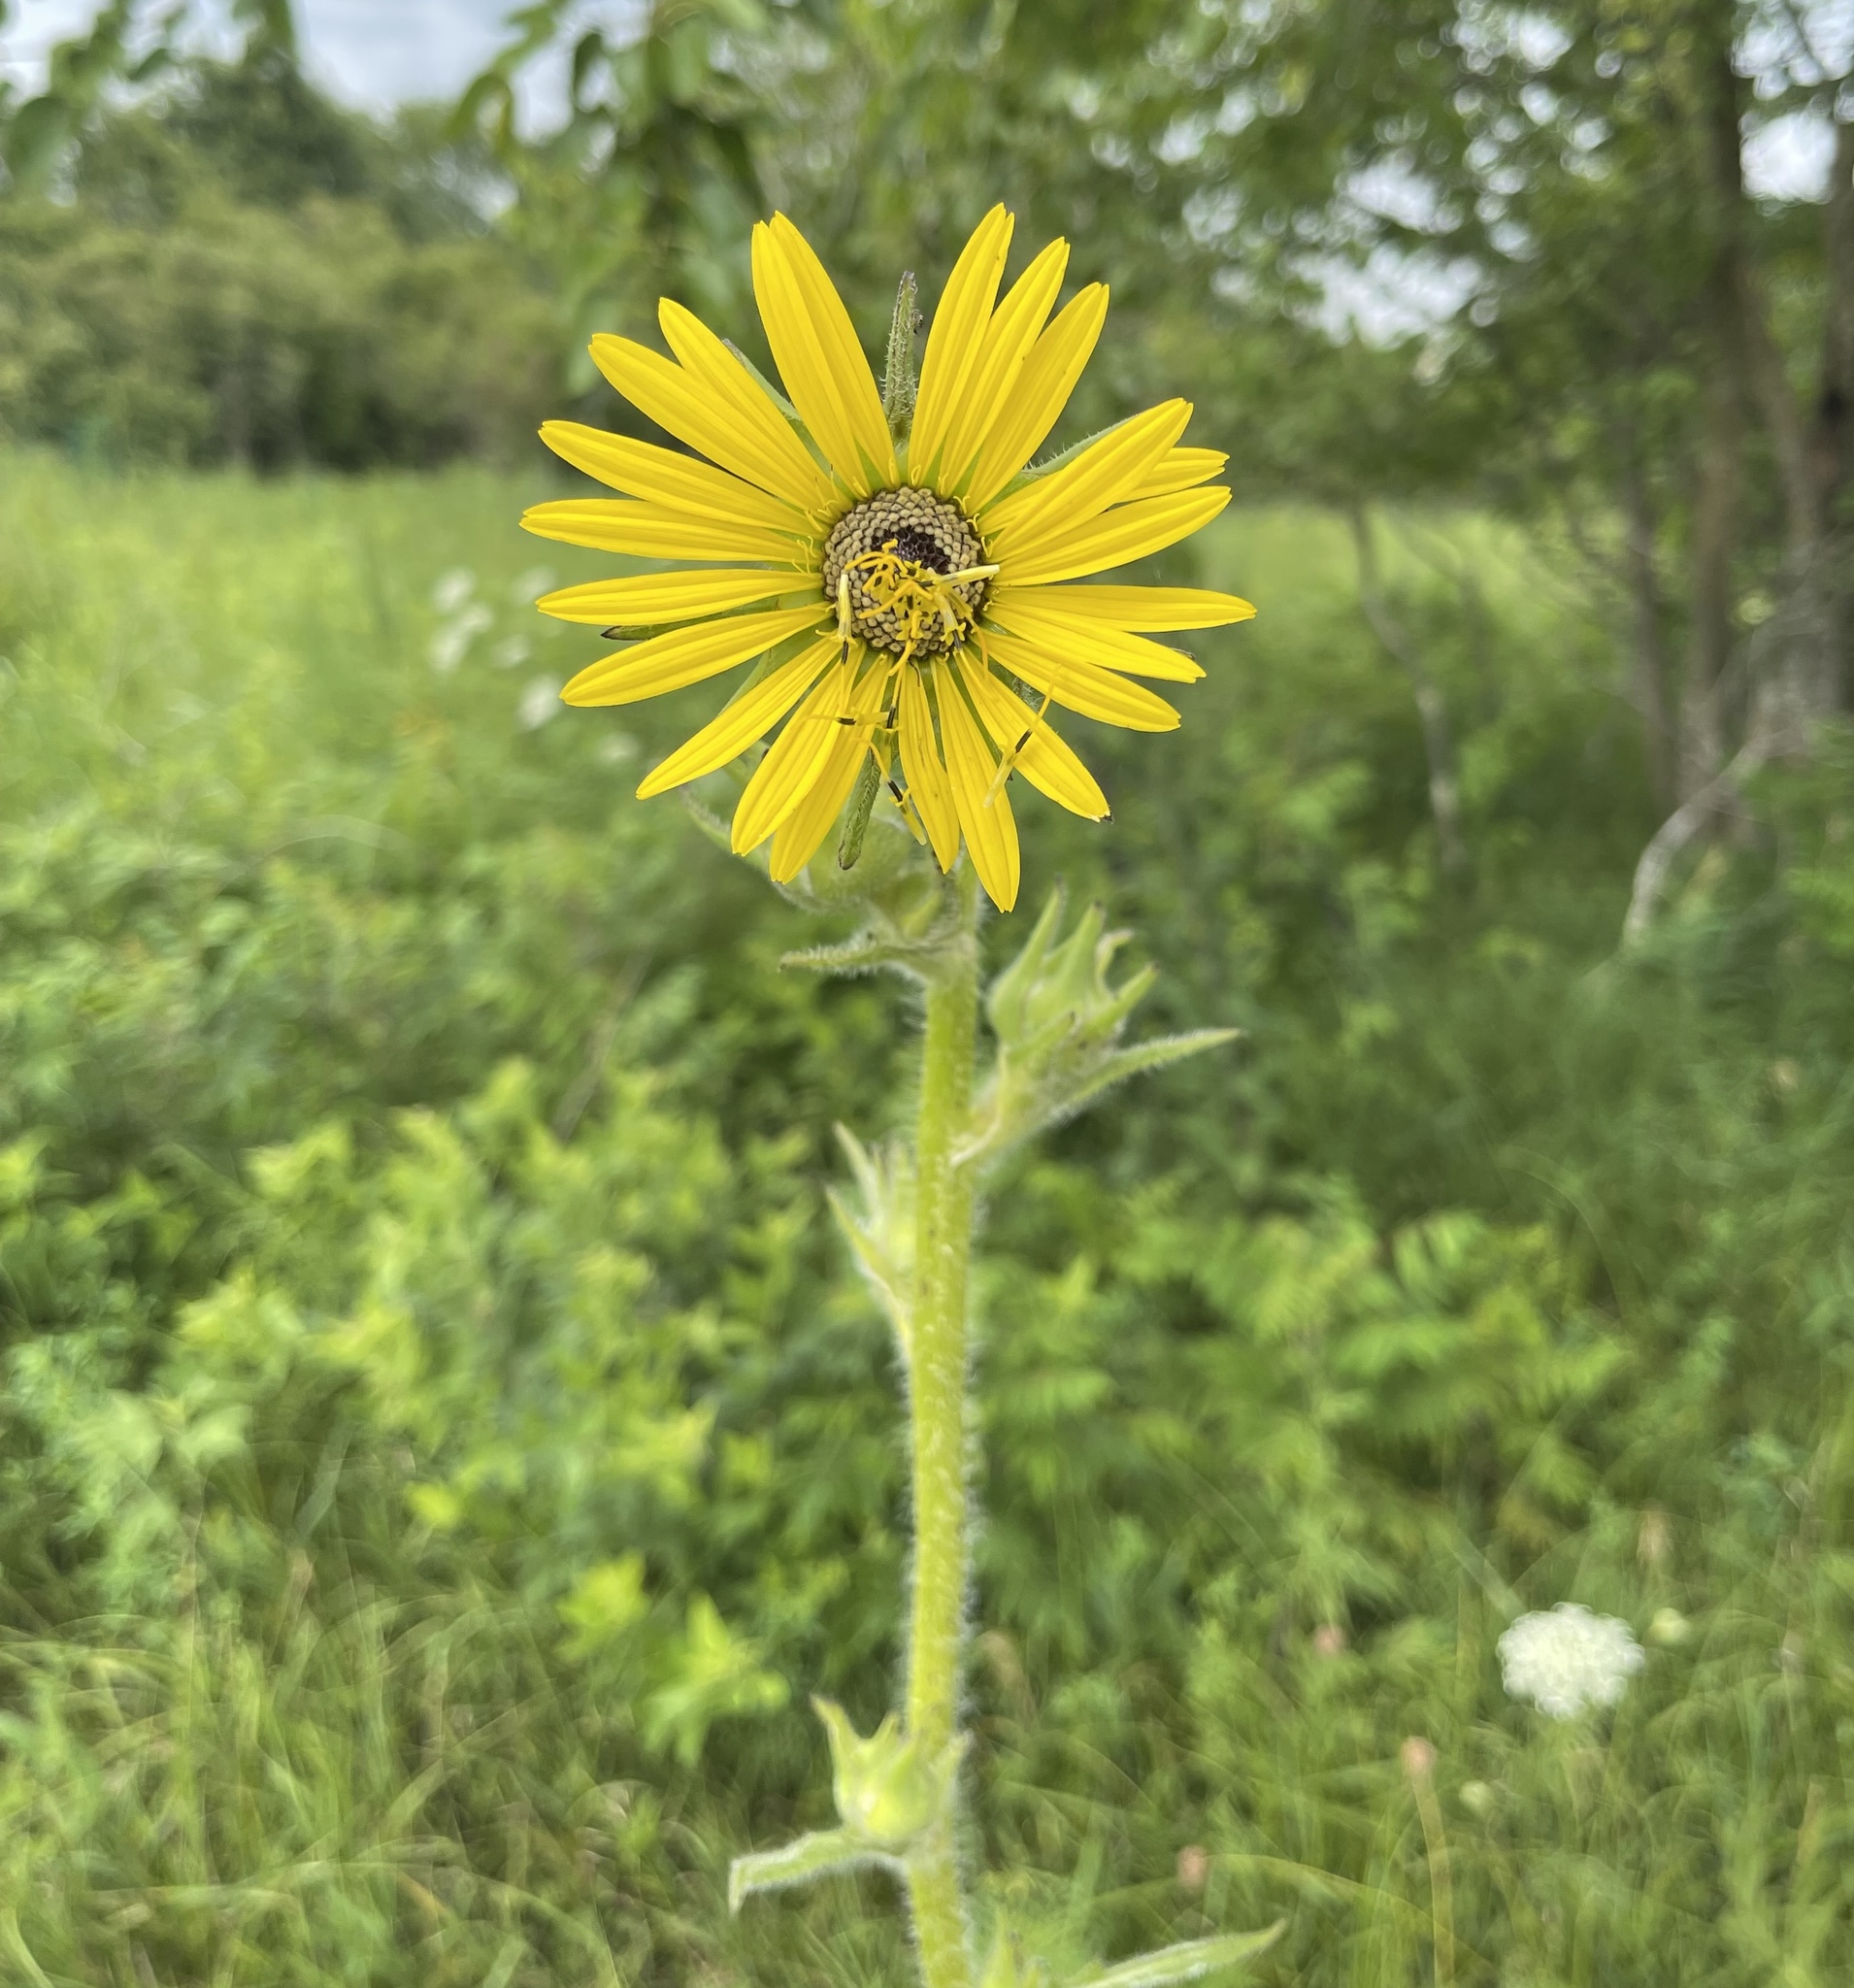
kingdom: Plantae
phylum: Tracheophyta
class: Magnoliopsida
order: Asterales
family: Asteraceae
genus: Silphium
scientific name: Silphium laciniatum
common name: Polarplant
